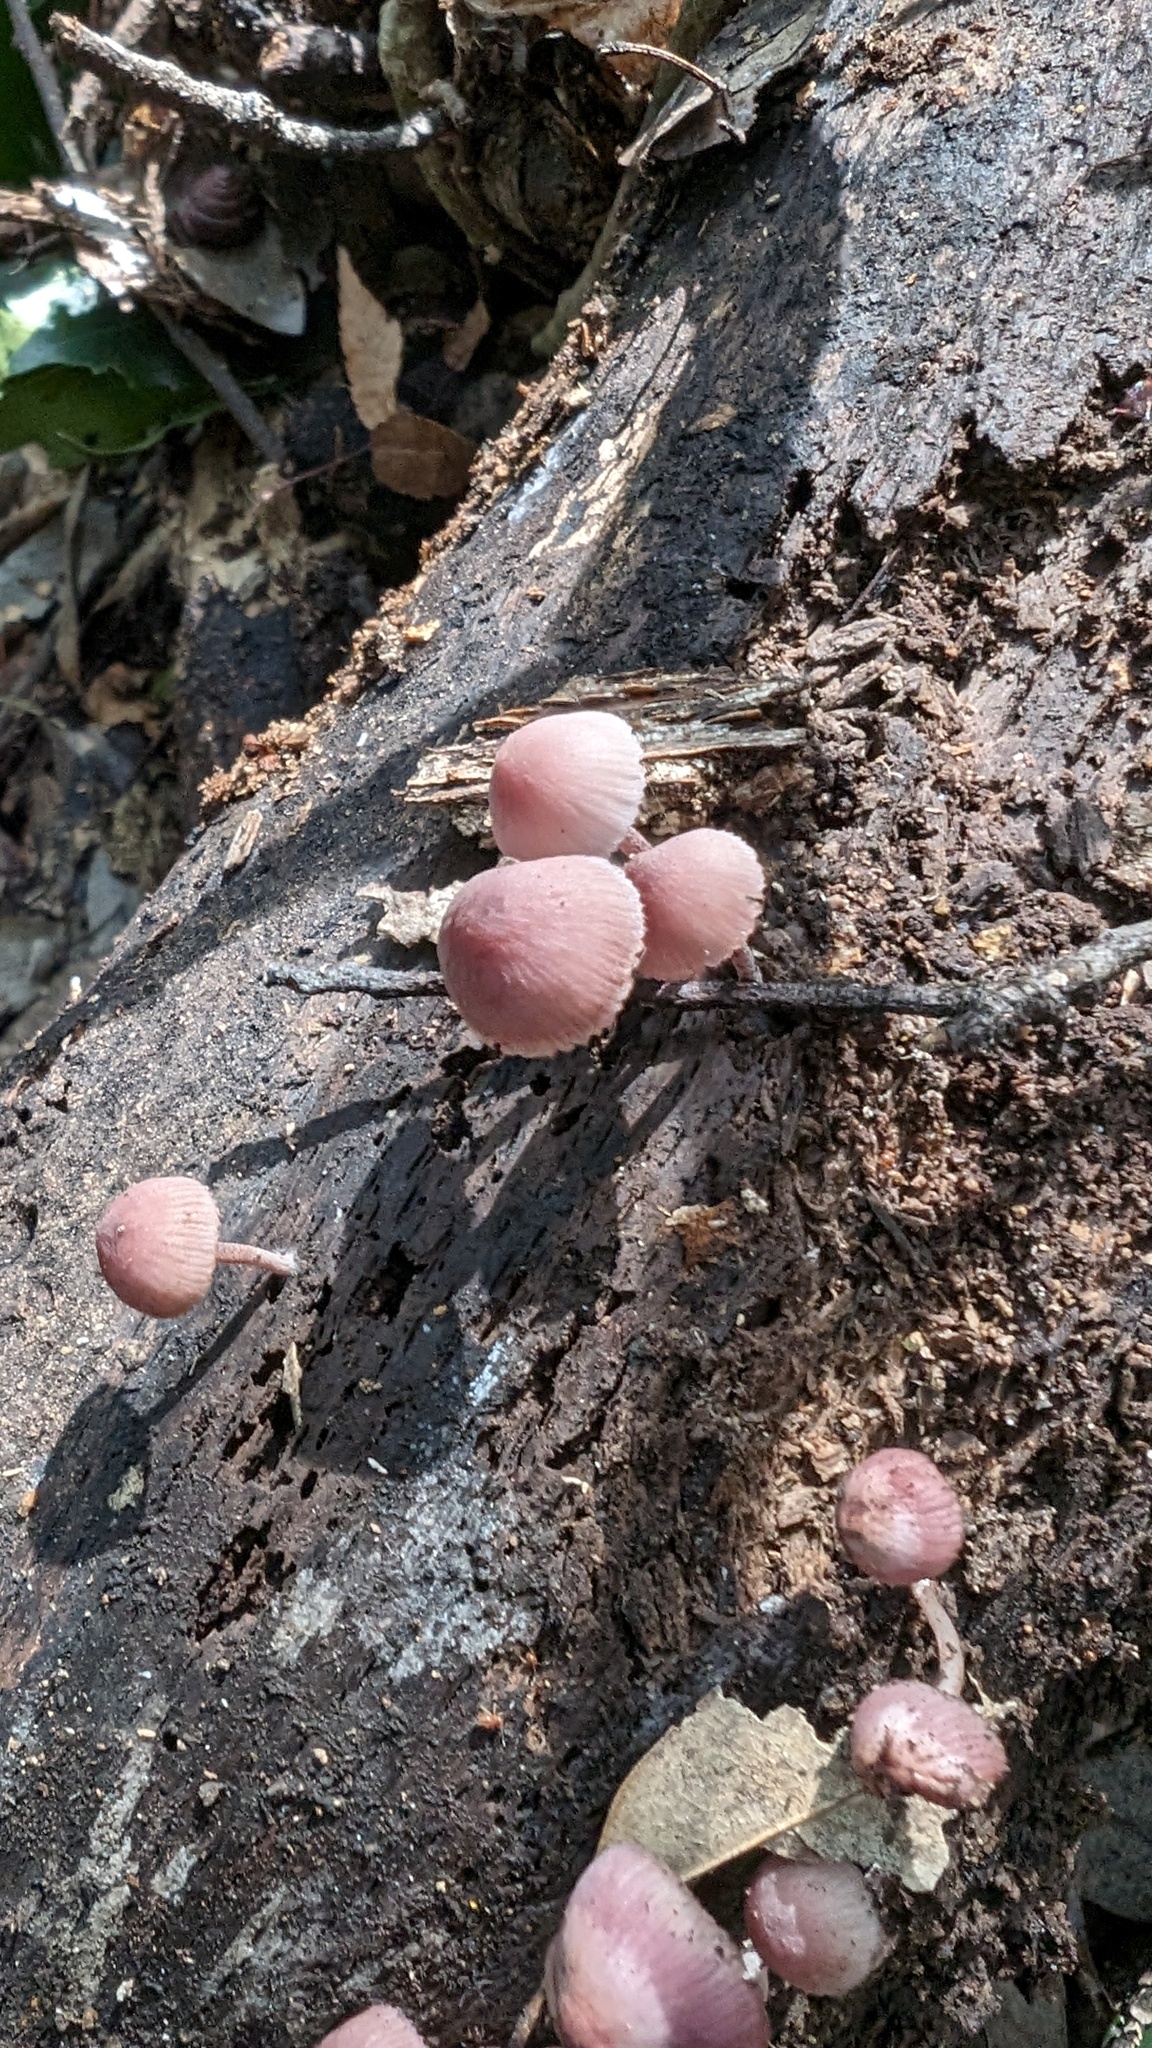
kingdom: Fungi
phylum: Basidiomycota
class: Agaricomycetes
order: Agaricales
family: Mycenaceae
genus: Mycena
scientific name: Mycena haematopus
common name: Burgundydrop bonnet
